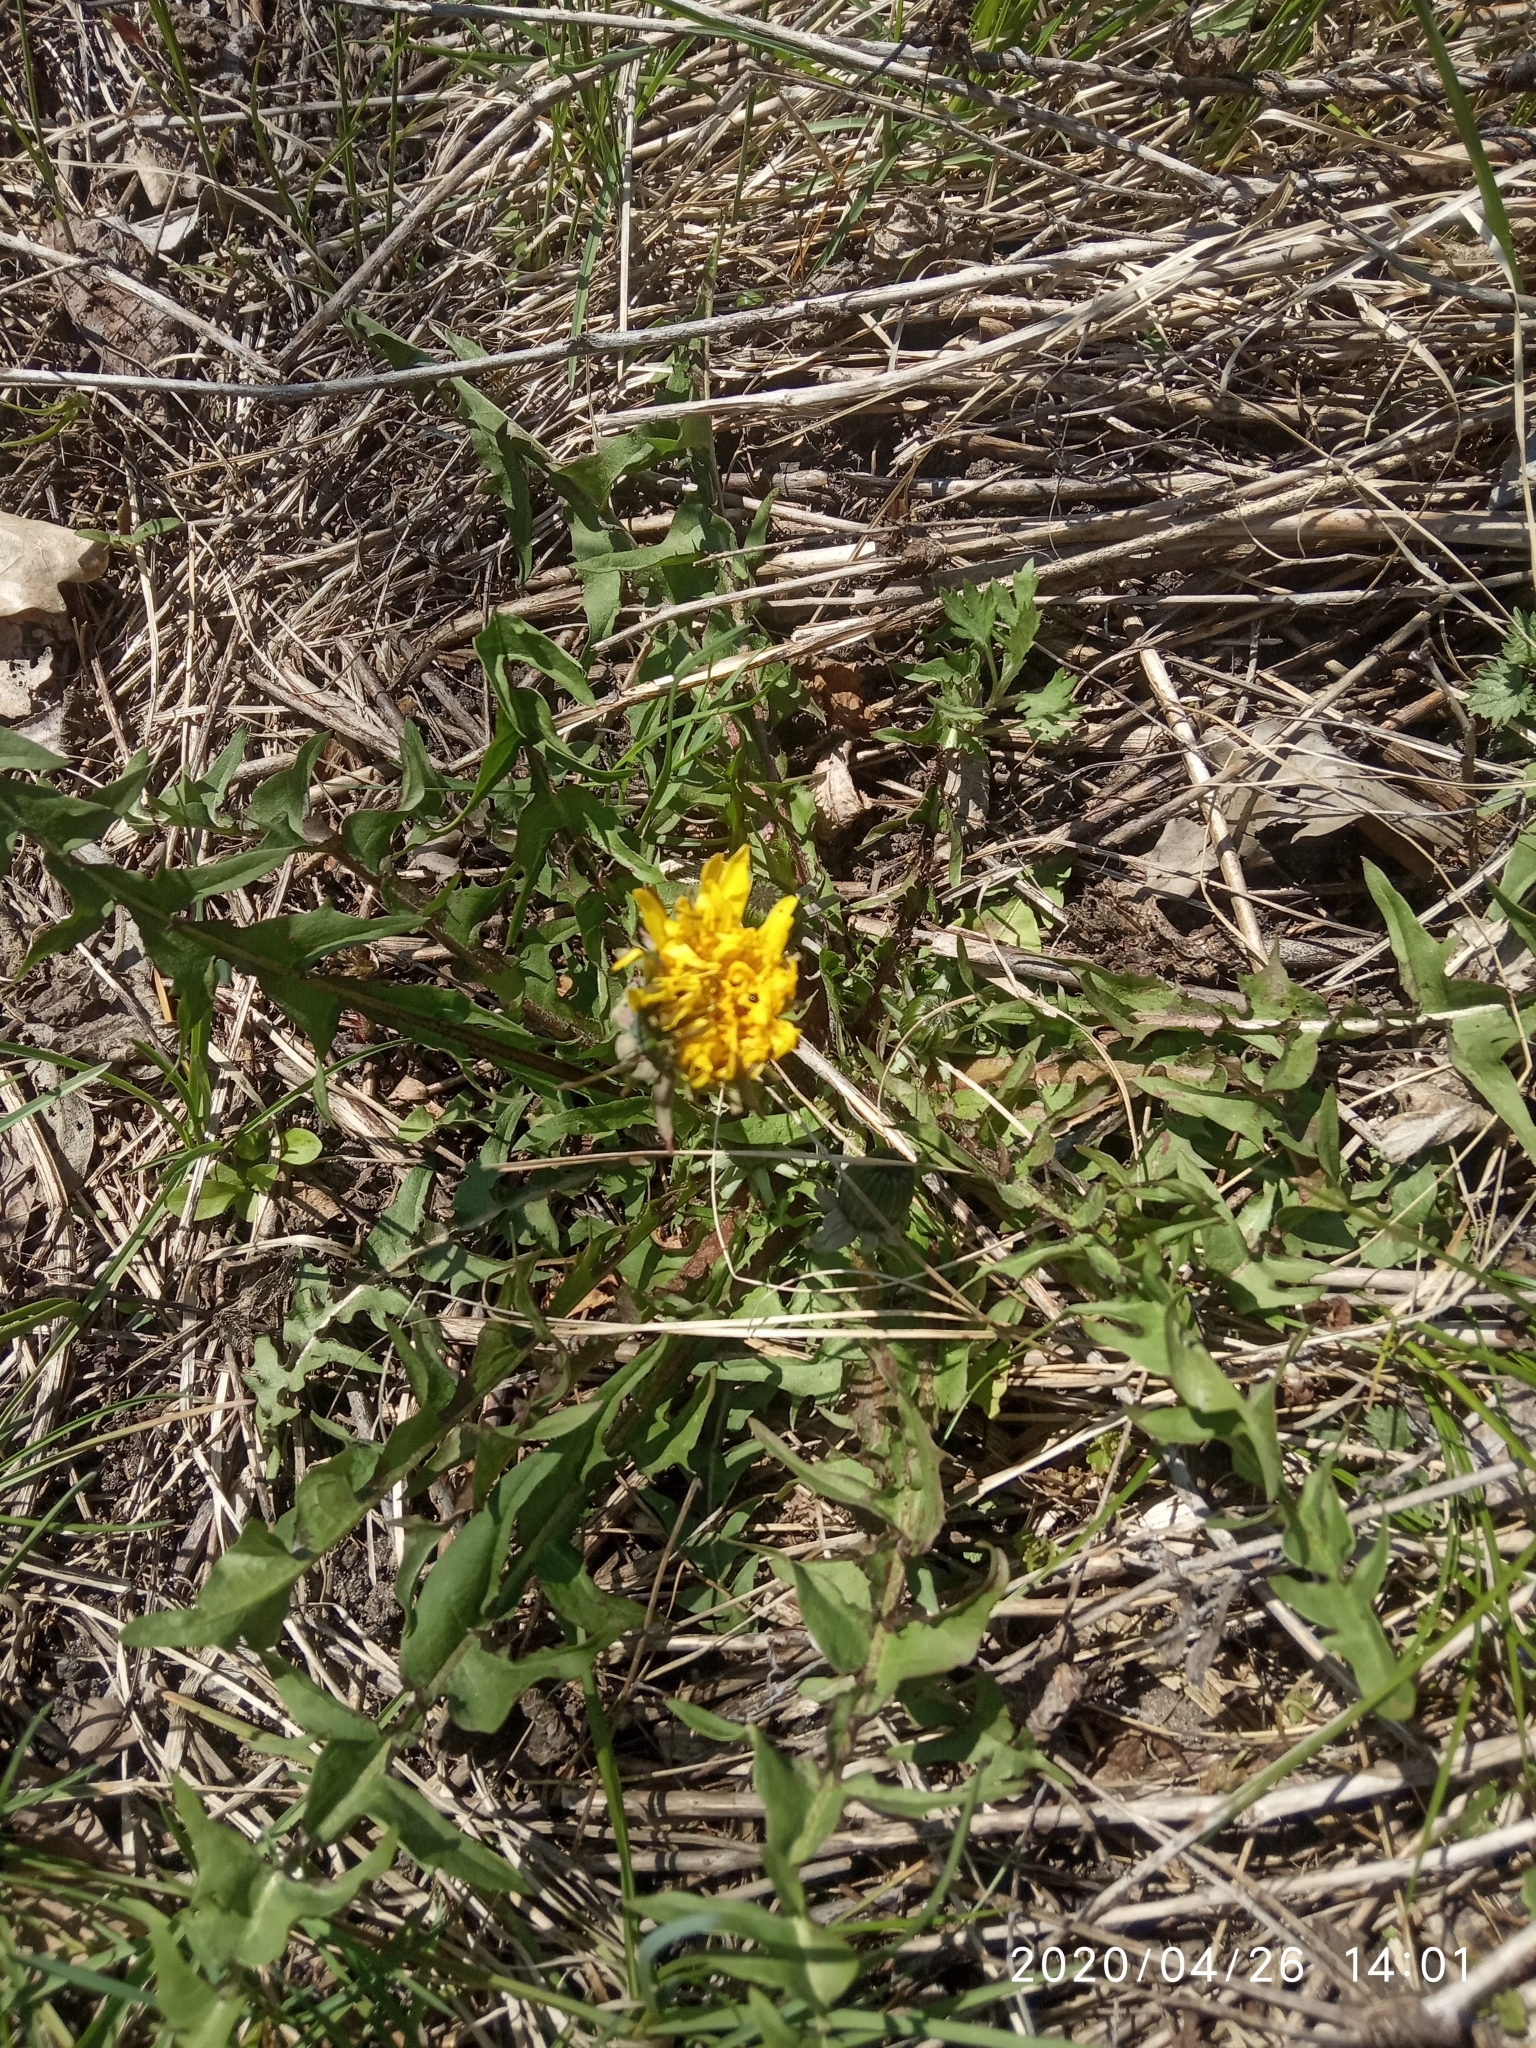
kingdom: Plantae
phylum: Tracheophyta
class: Magnoliopsida
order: Asterales
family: Asteraceae
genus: Taraxacum
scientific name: Taraxacum officinale
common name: Common dandelion
